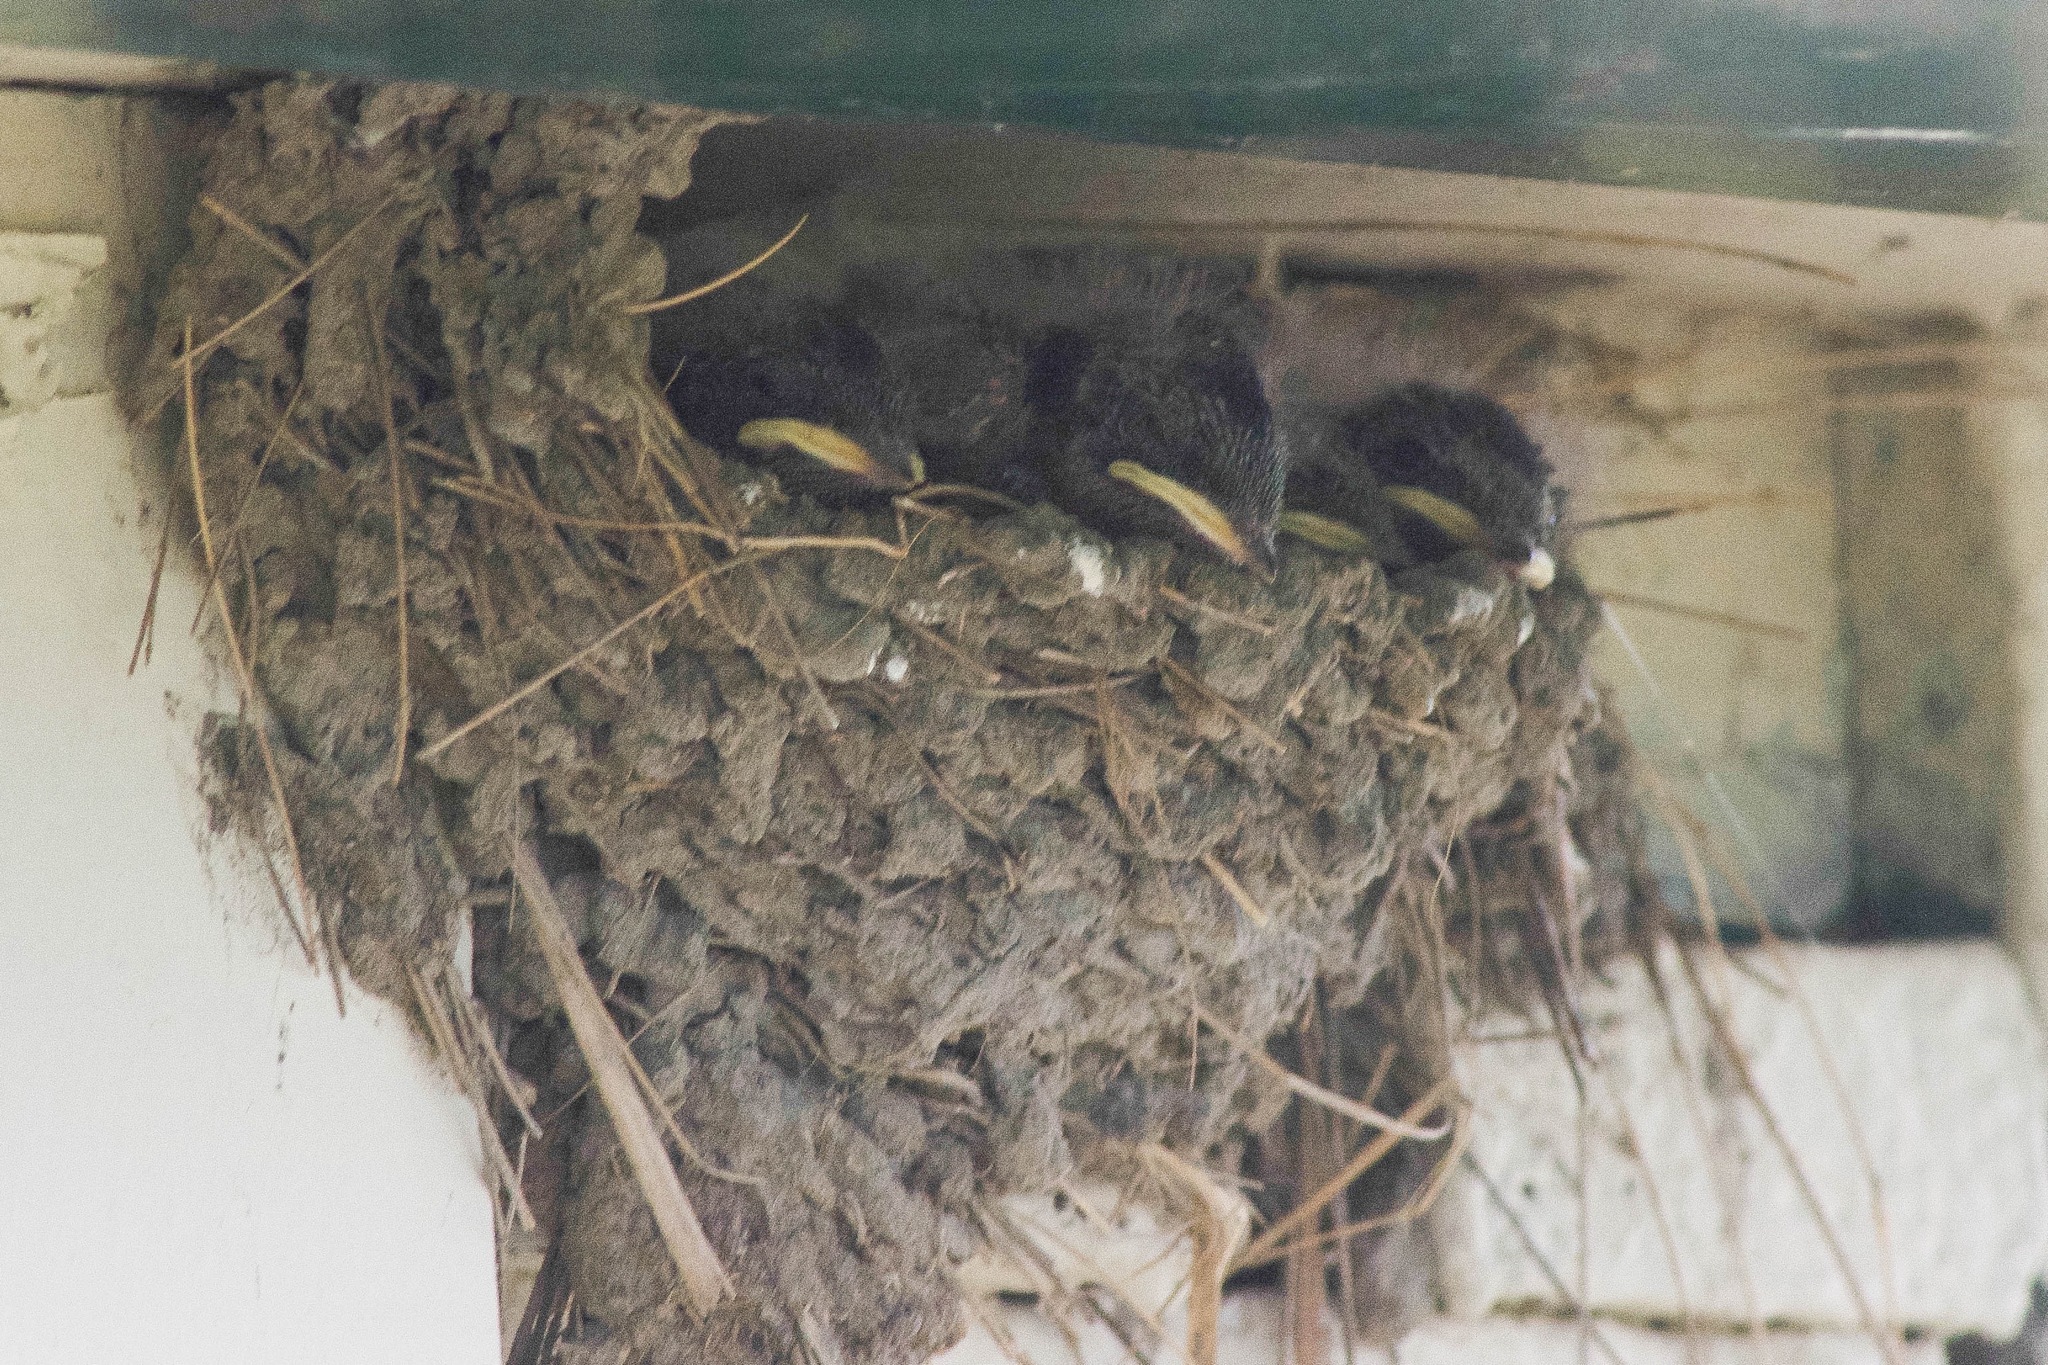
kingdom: Animalia
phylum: Chordata
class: Aves
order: Passeriformes
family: Hirundinidae
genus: Hirundo
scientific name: Hirundo rustica
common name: Barn swallow
